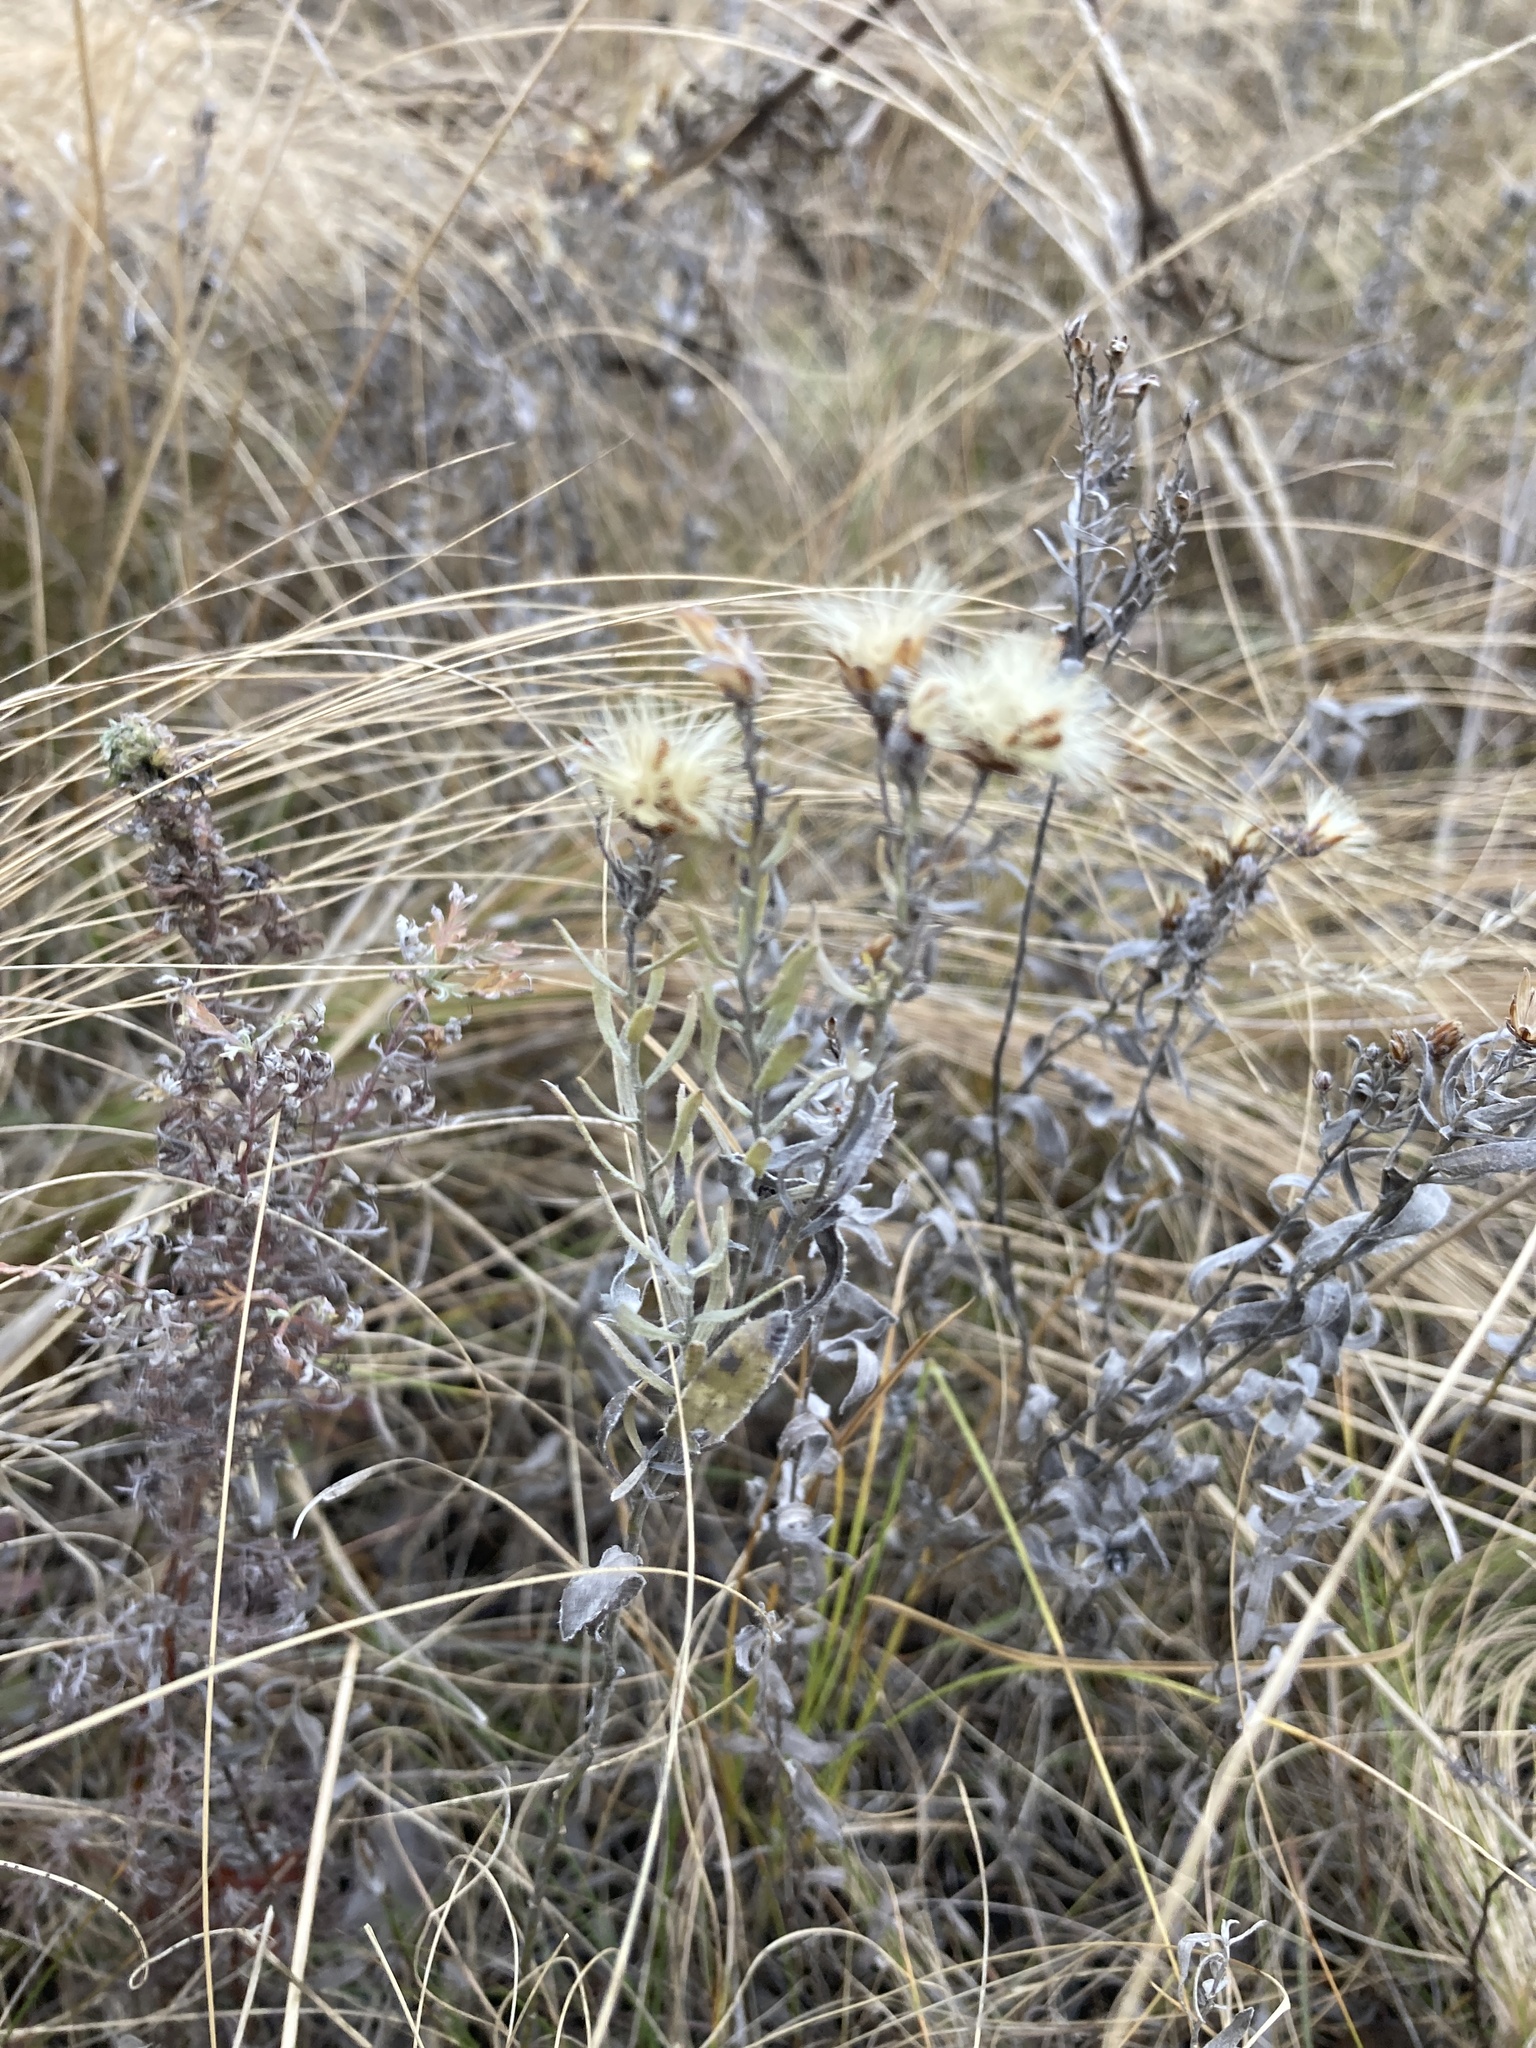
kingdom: Plantae
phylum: Tracheophyta
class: Magnoliopsida
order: Asterales
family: Asteraceae
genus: Galatella
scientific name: Galatella villosa
